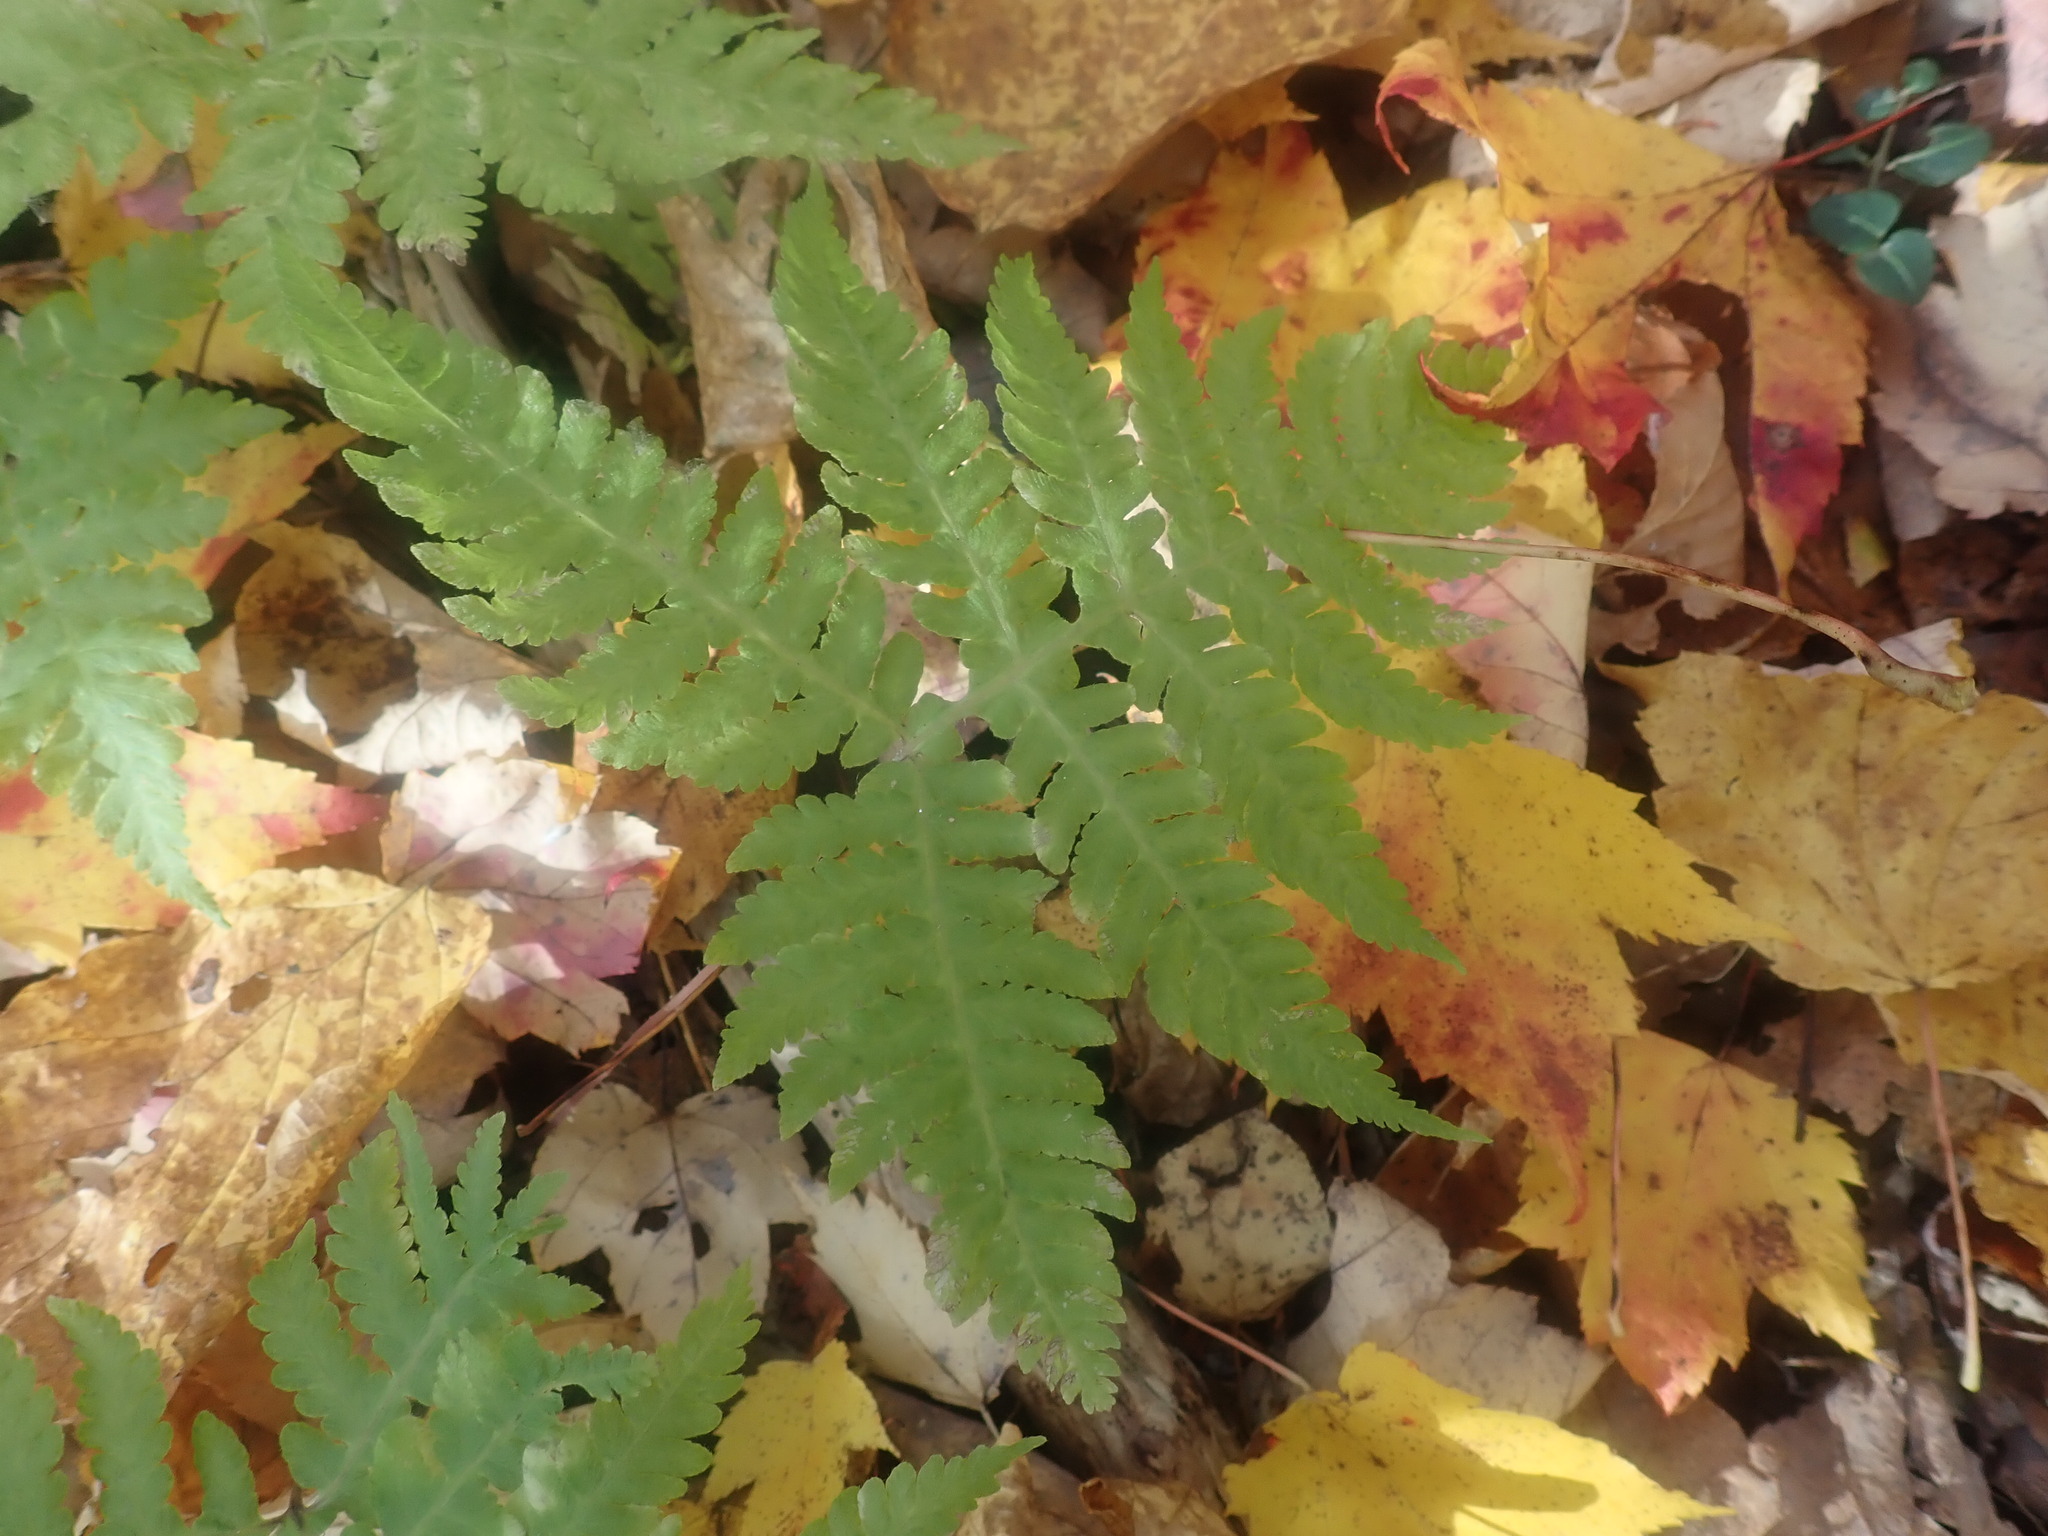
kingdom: Plantae
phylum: Tracheophyta
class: Polypodiopsida
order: Polypodiales
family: Thelypteridaceae
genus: Phegopteris
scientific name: Phegopteris hexagonoptera
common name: Broad beech fern
